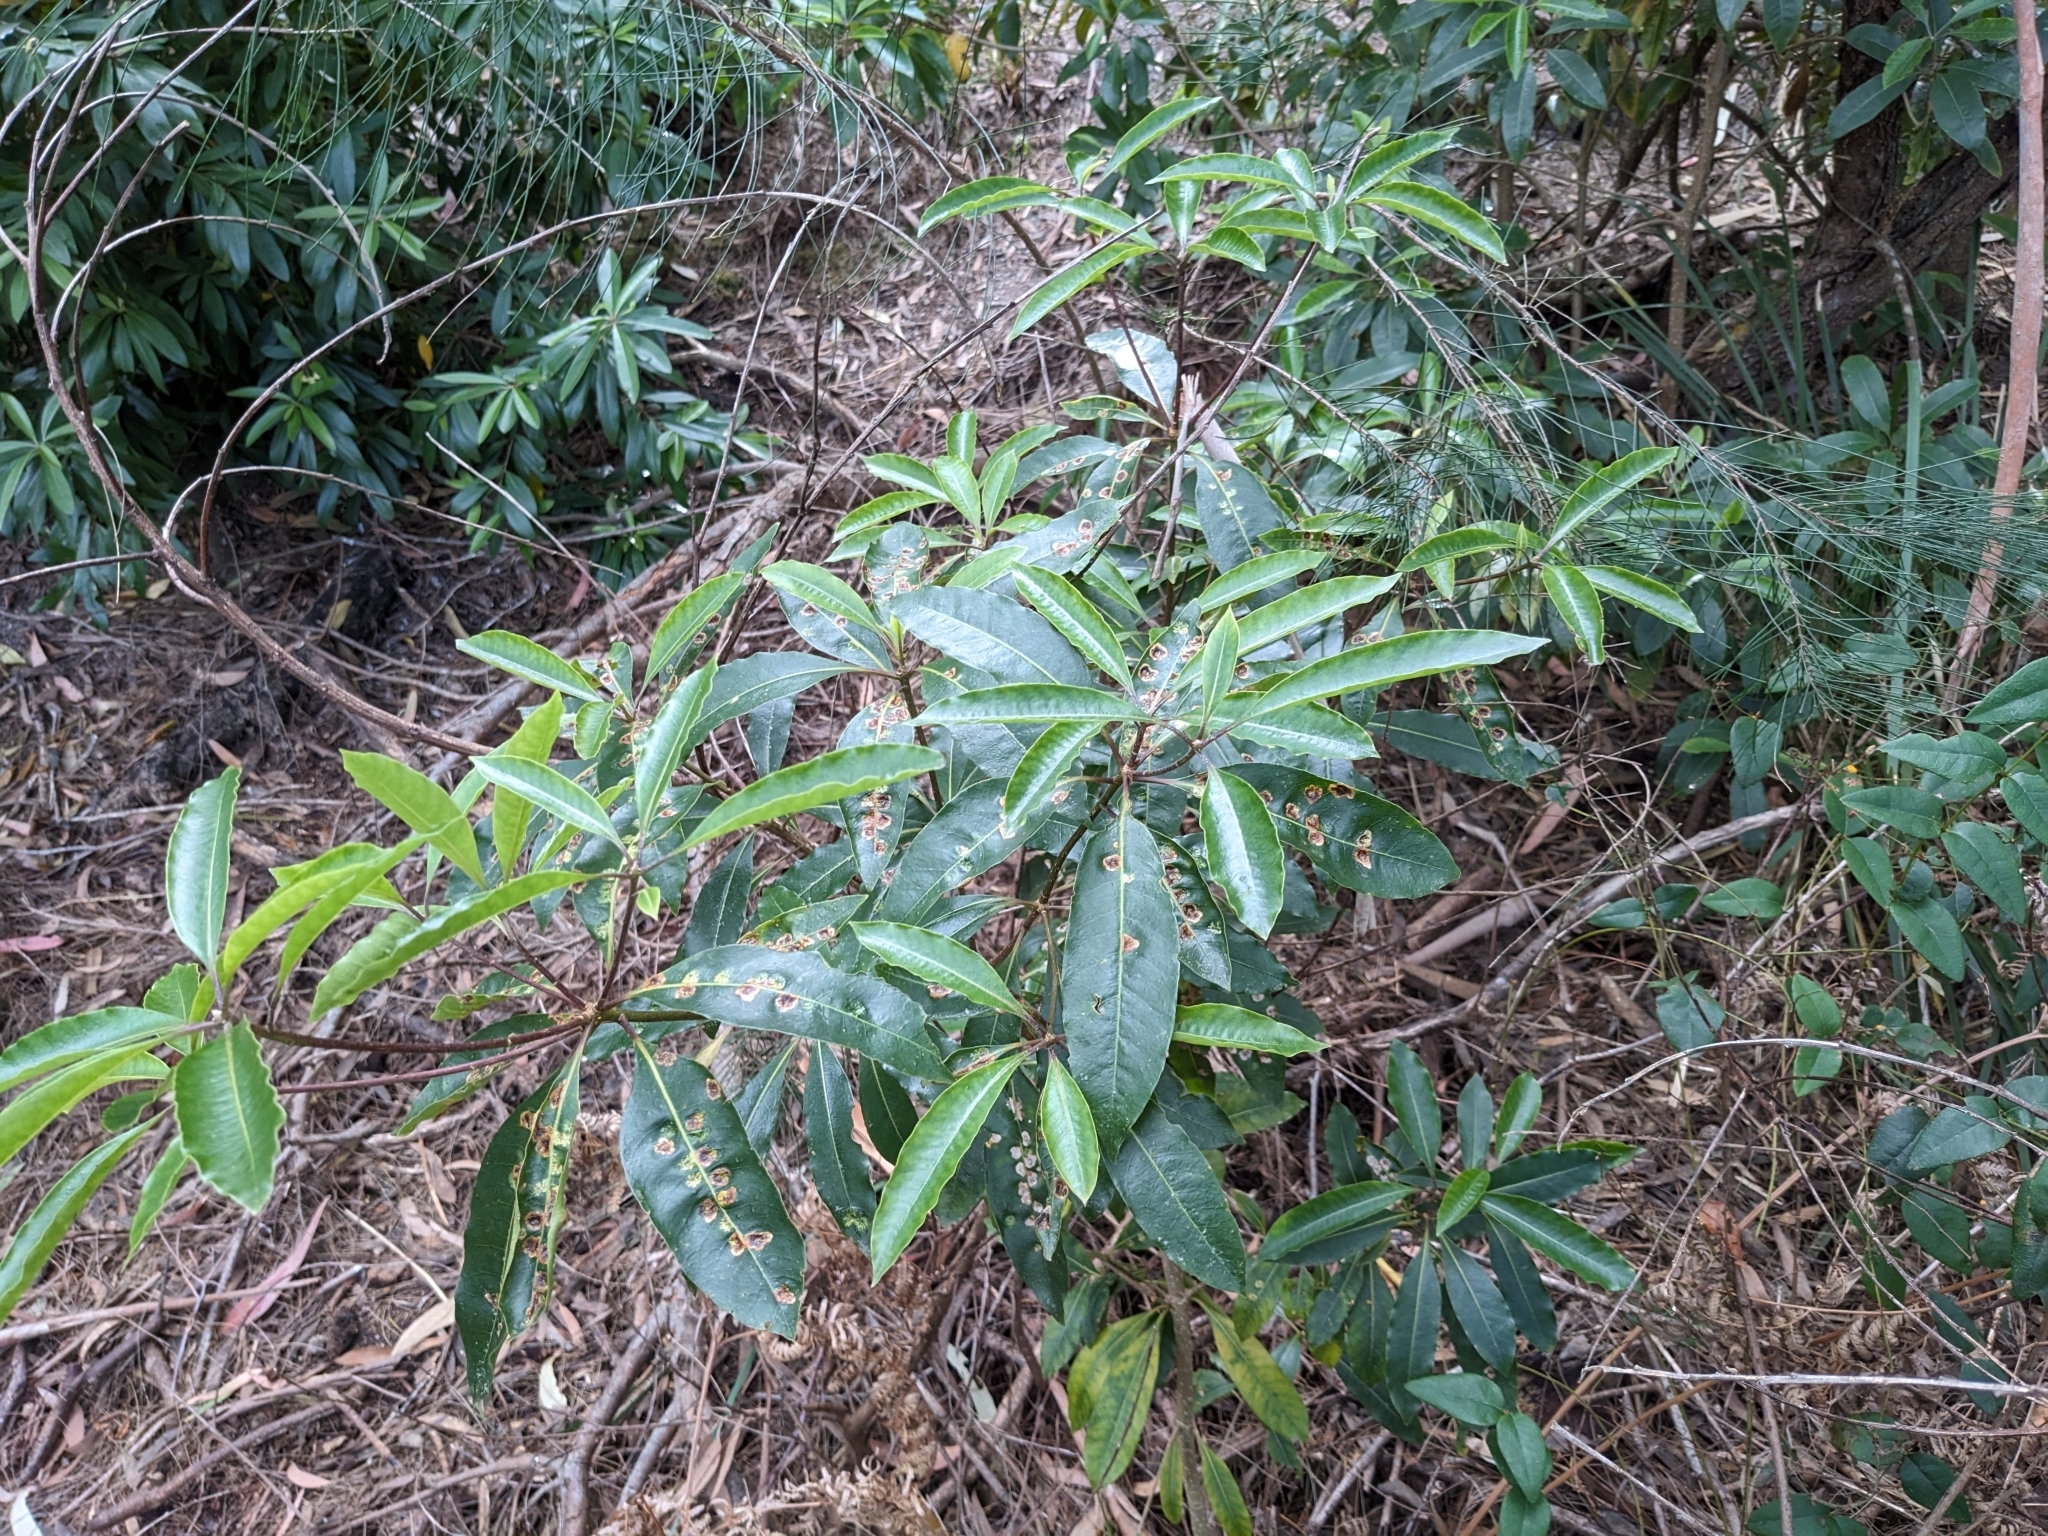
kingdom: Plantae
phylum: Tracheophyta
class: Magnoliopsida
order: Apiales
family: Pittosporaceae
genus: Pittosporum
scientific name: Pittosporum undulatum
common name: Australian cheesewood
